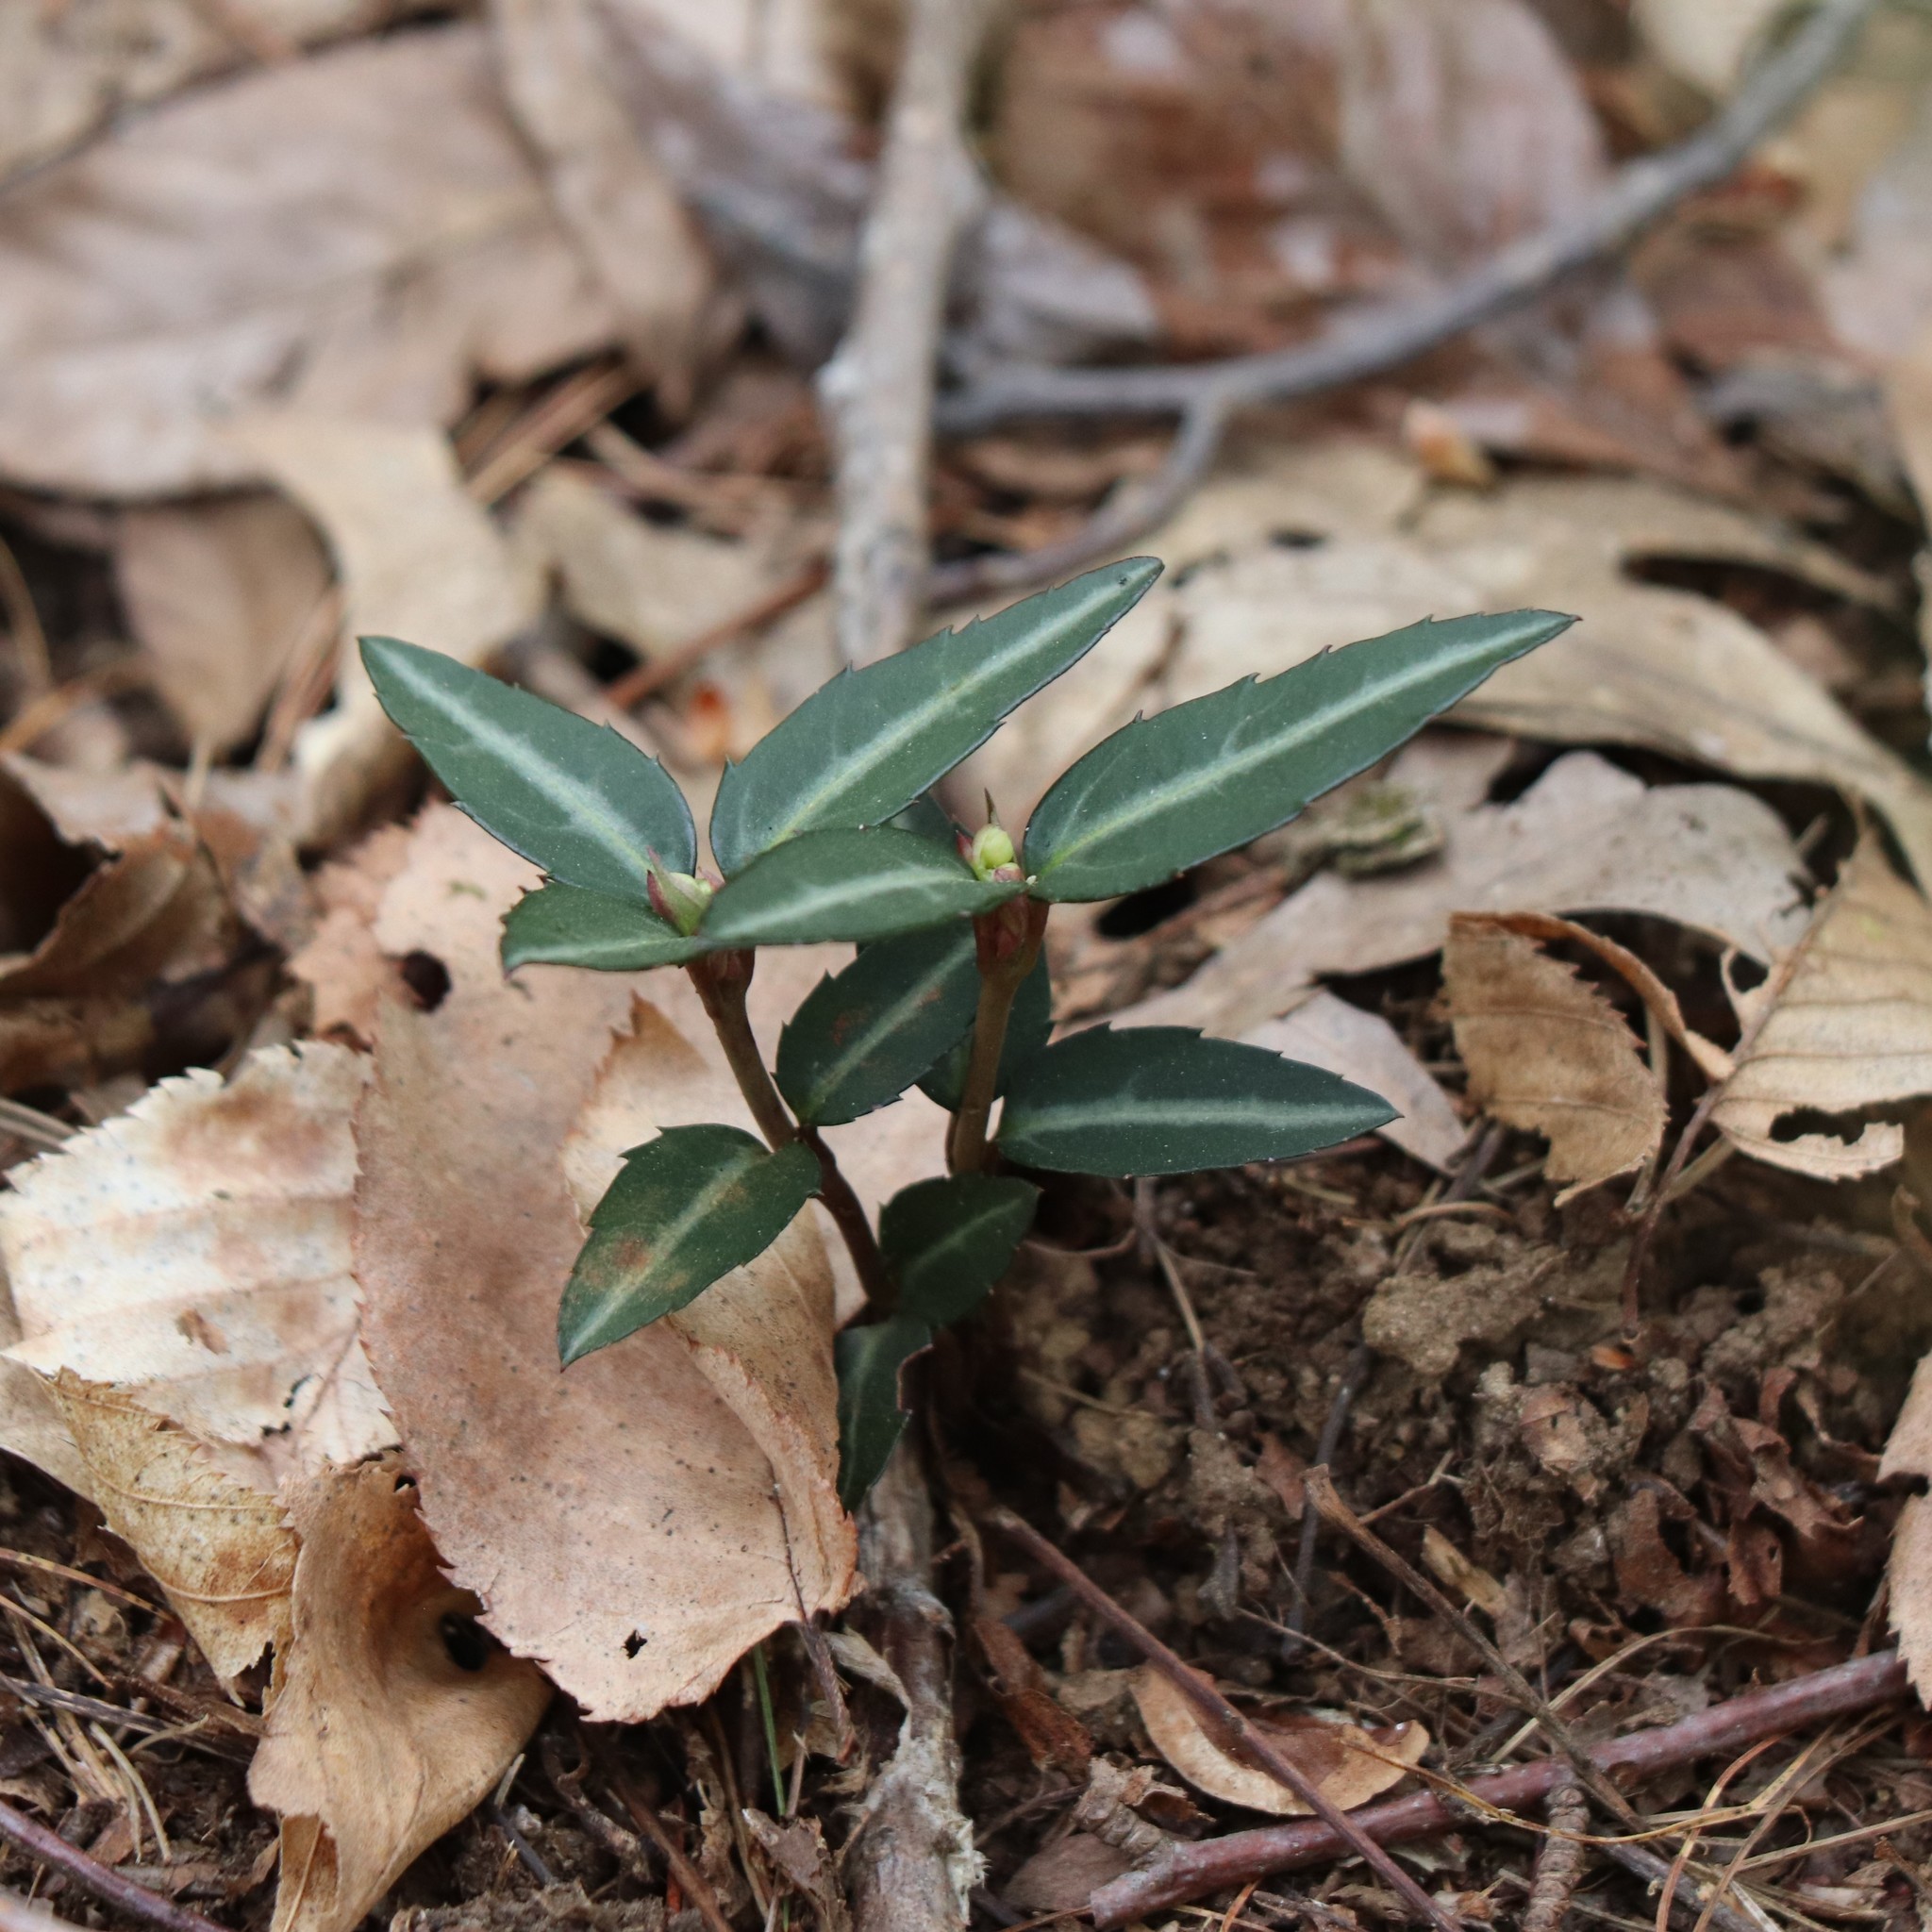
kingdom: Plantae
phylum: Tracheophyta
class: Magnoliopsida
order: Ericales
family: Ericaceae
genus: Chimaphila
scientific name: Chimaphila maculata
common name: Spotted pipsissewa
